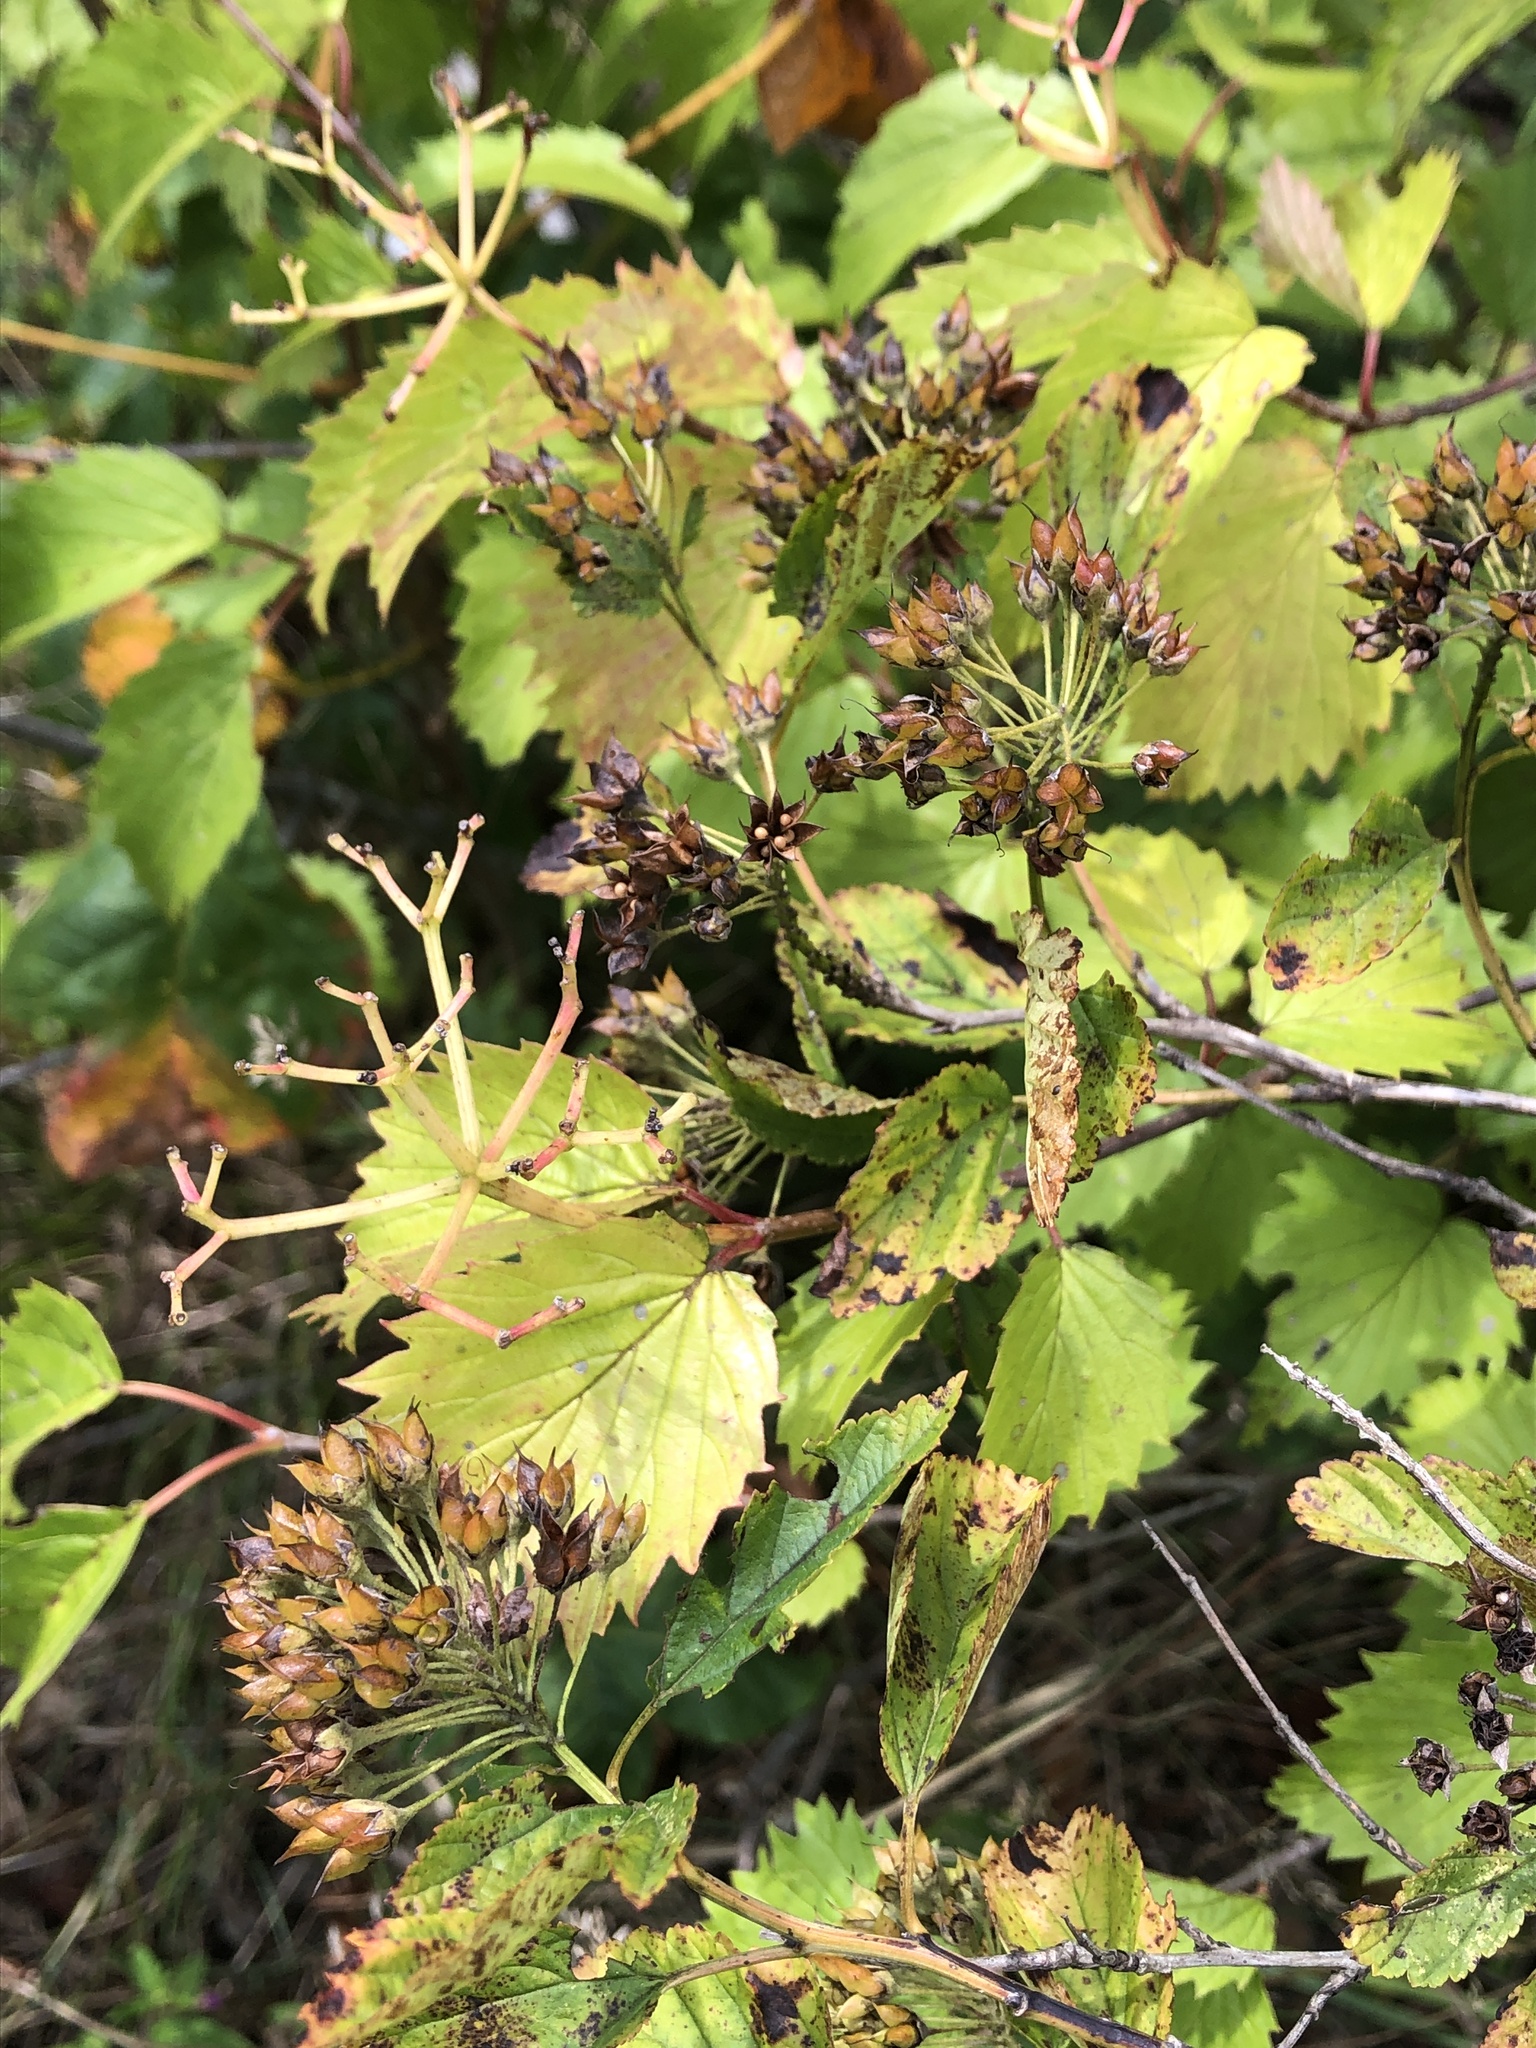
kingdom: Plantae
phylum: Tracheophyta
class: Magnoliopsida
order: Dipsacales
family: Viburnaceae
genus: Viburnum
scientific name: Viburnum recognitum
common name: Northern arrow-wood
